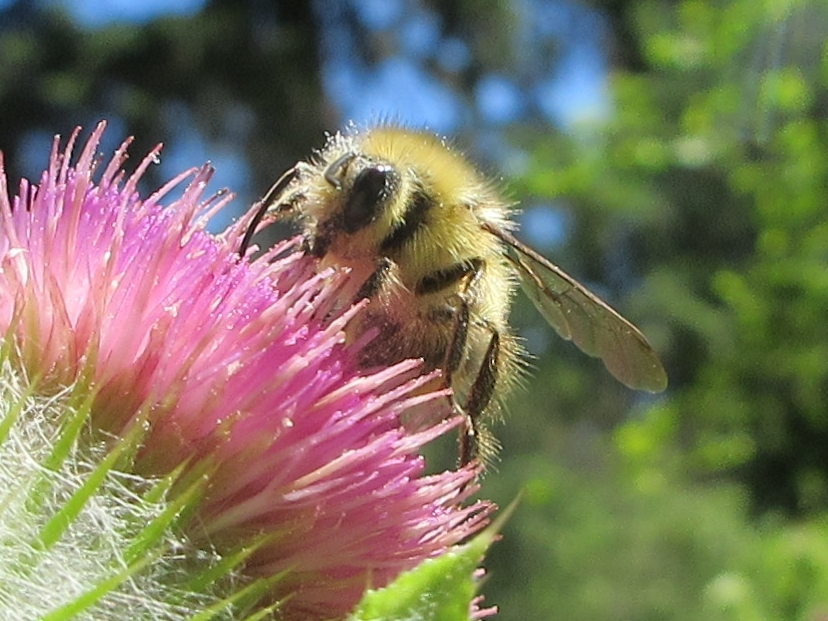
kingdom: Animalia
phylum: Arthropoda
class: Insecta
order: Hymenoptera
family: Apidae
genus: Bombus
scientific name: Bombus mixtus
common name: Fuzzy-horned bumble bee
